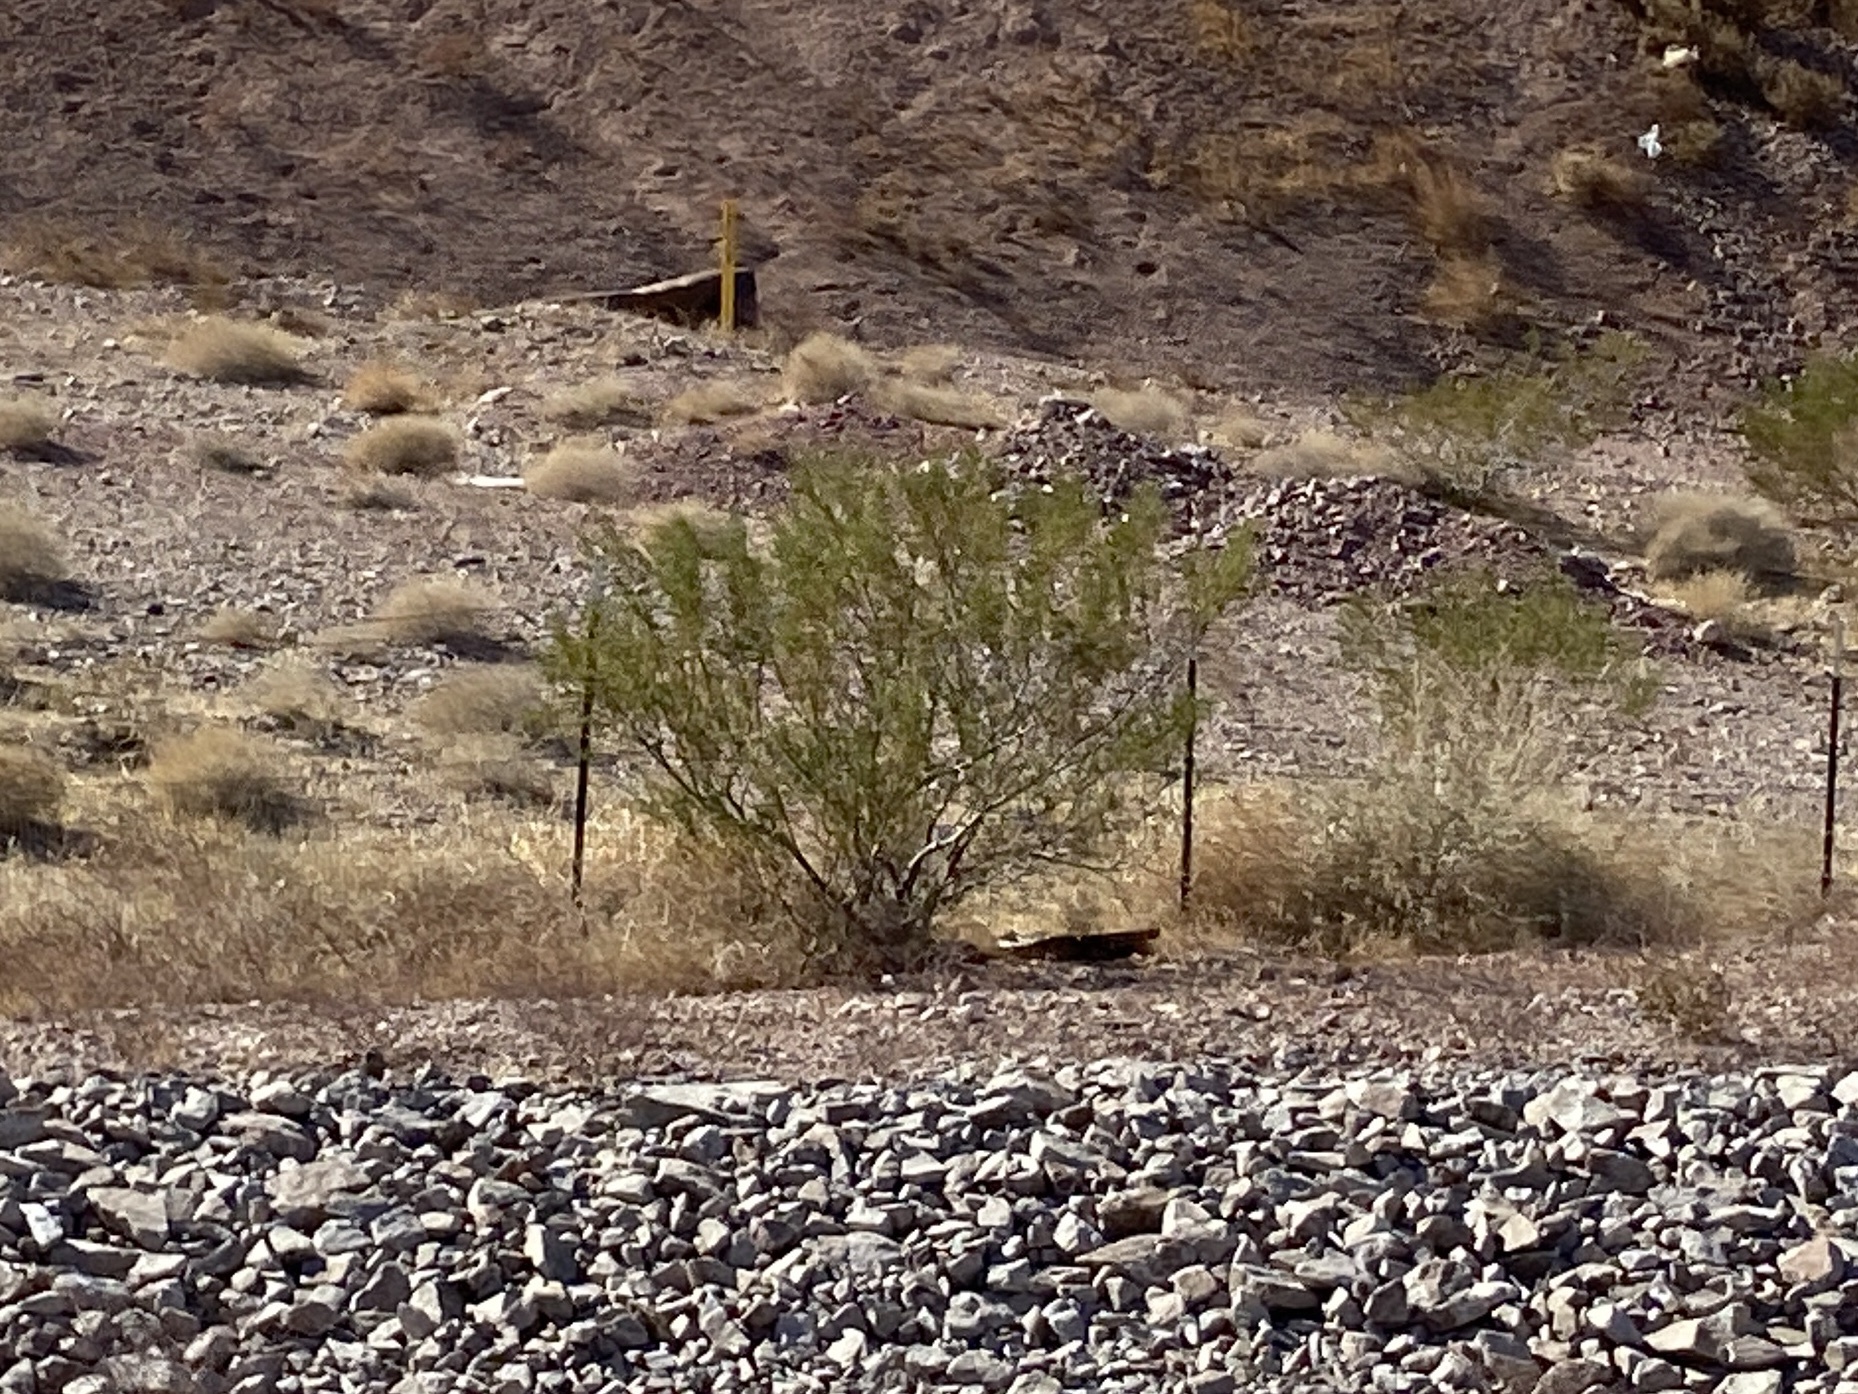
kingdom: Plantae
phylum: Tracheophyta
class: Magnoliopsida
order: Zygophyllales
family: Zygophyllaceae
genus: Larrea
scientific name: Larrea tridentata
